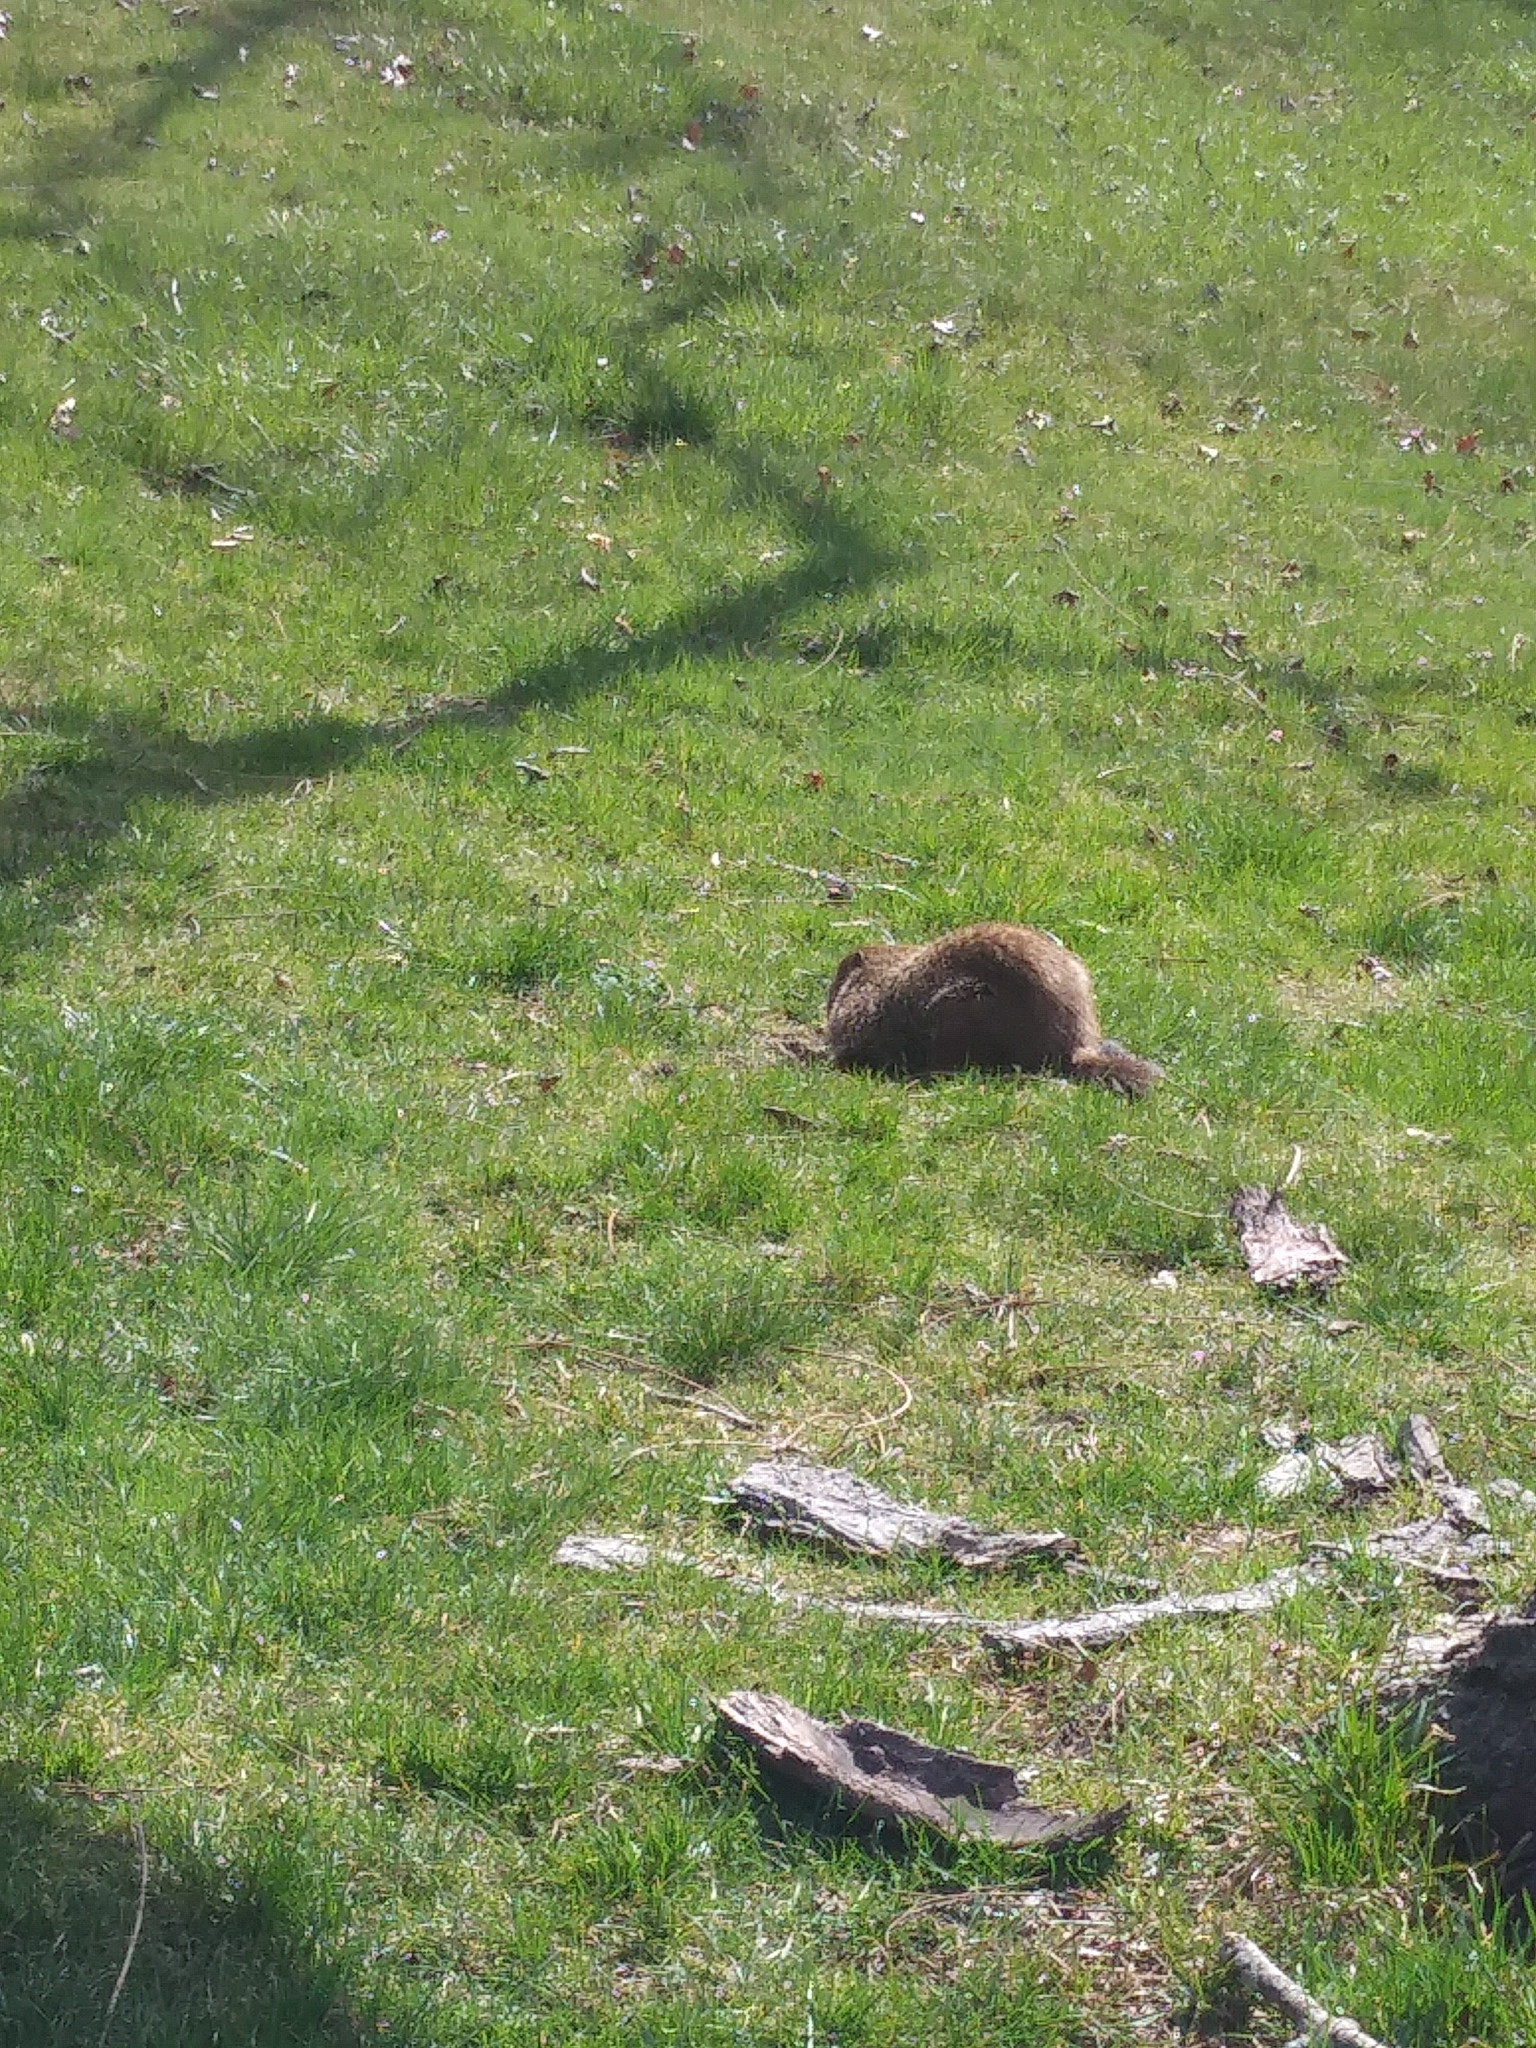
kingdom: Animalia
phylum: Chordata
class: Mammalia
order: Rodentia
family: Sciuridae
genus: Marmota
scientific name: Marmota monax
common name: Groundhog
